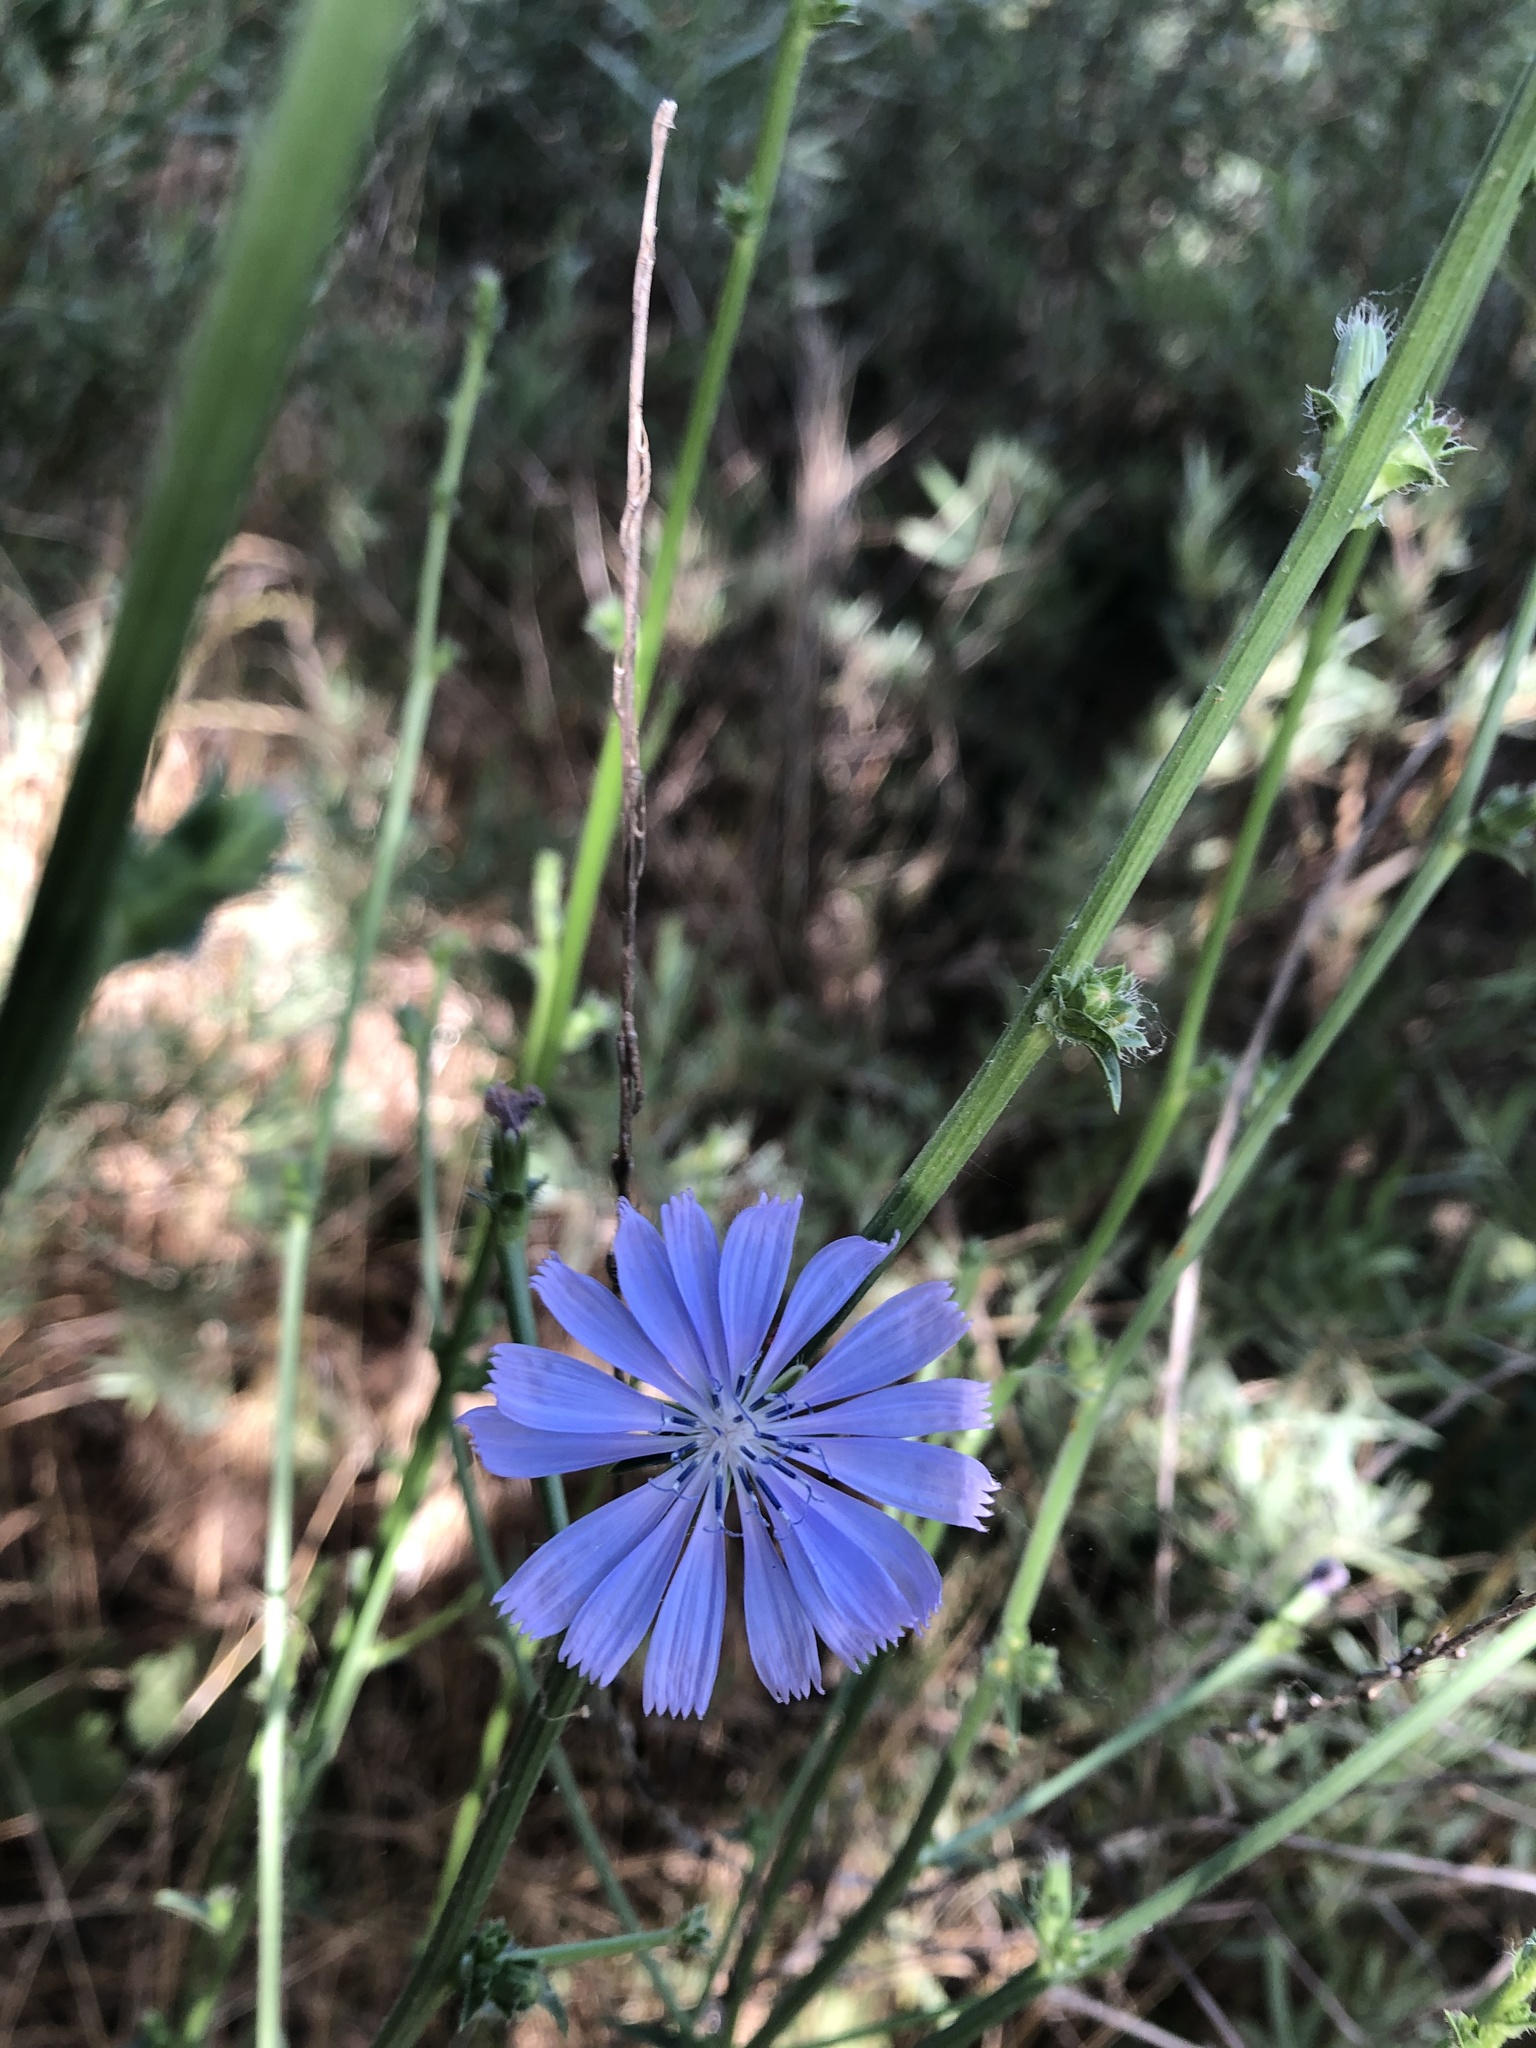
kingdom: Plantae
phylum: Tracheophyta
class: Magnoliopsida
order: Asterales
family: Asteraceae
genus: Cichorium
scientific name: Cichorium intybus
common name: Chicory
